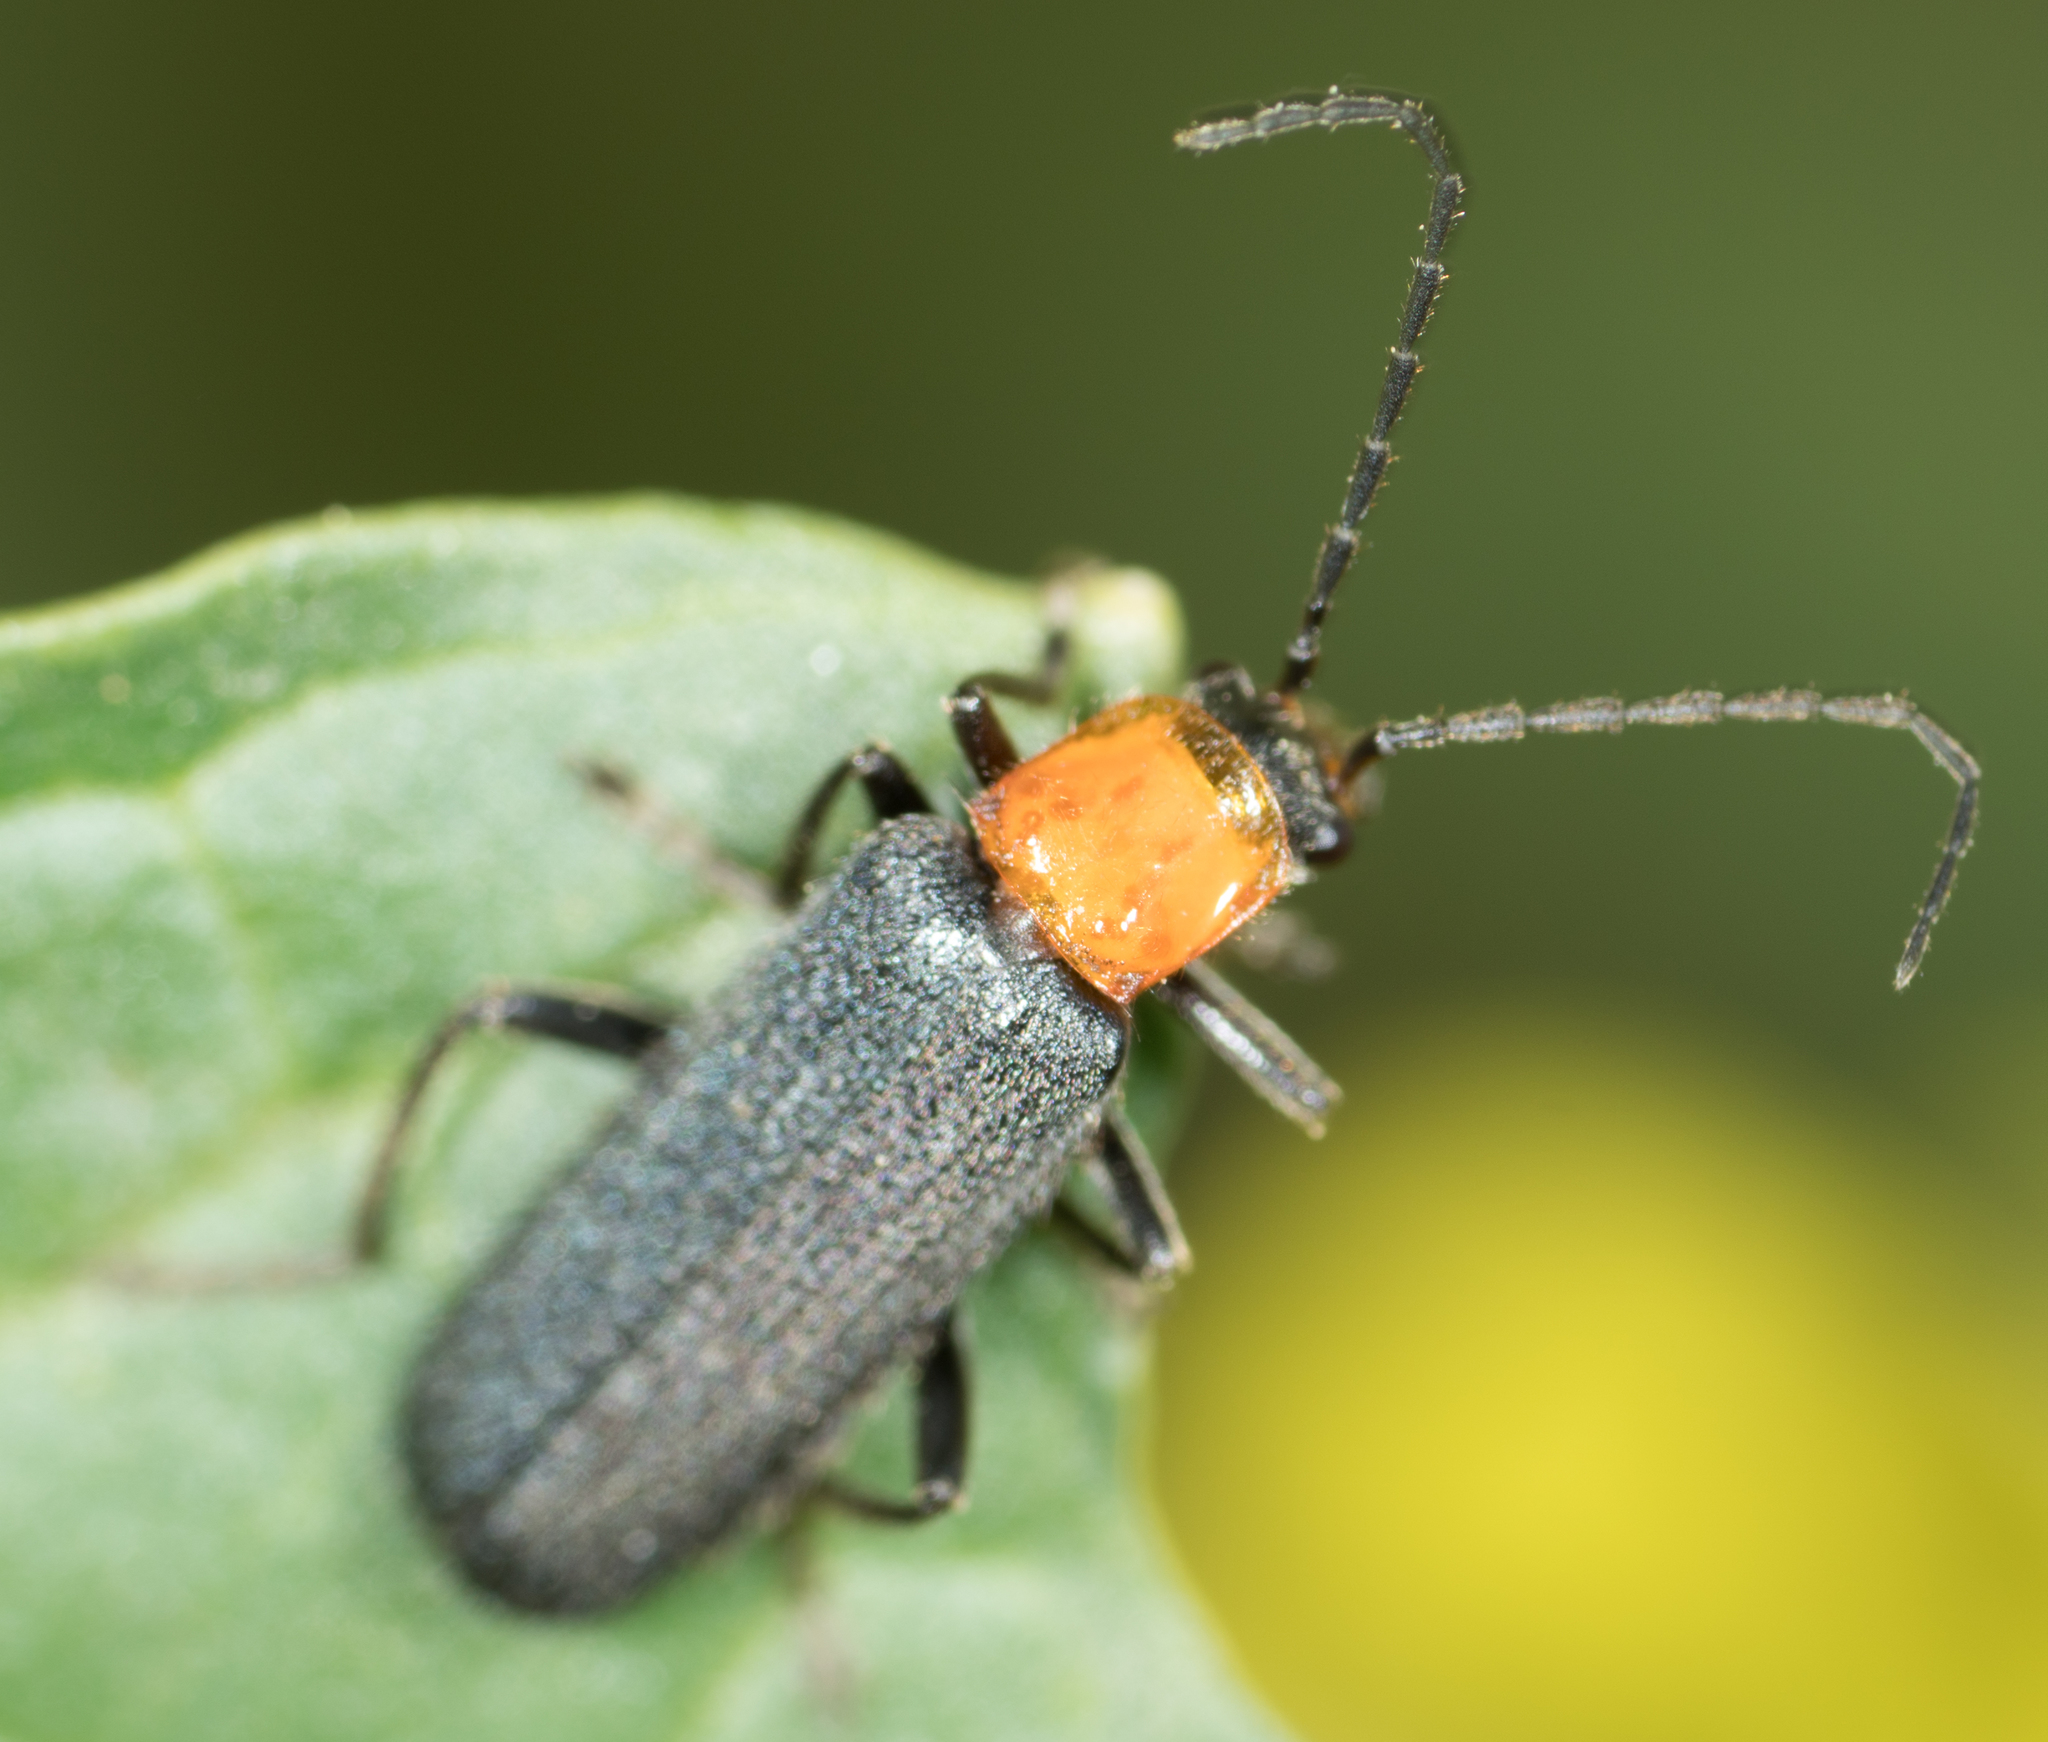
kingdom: Animalia
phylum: Arthropoda
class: Insecta
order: Coleoptera
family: Cantharidae
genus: Cultellunguis
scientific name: Cultellunguis ingenuus
